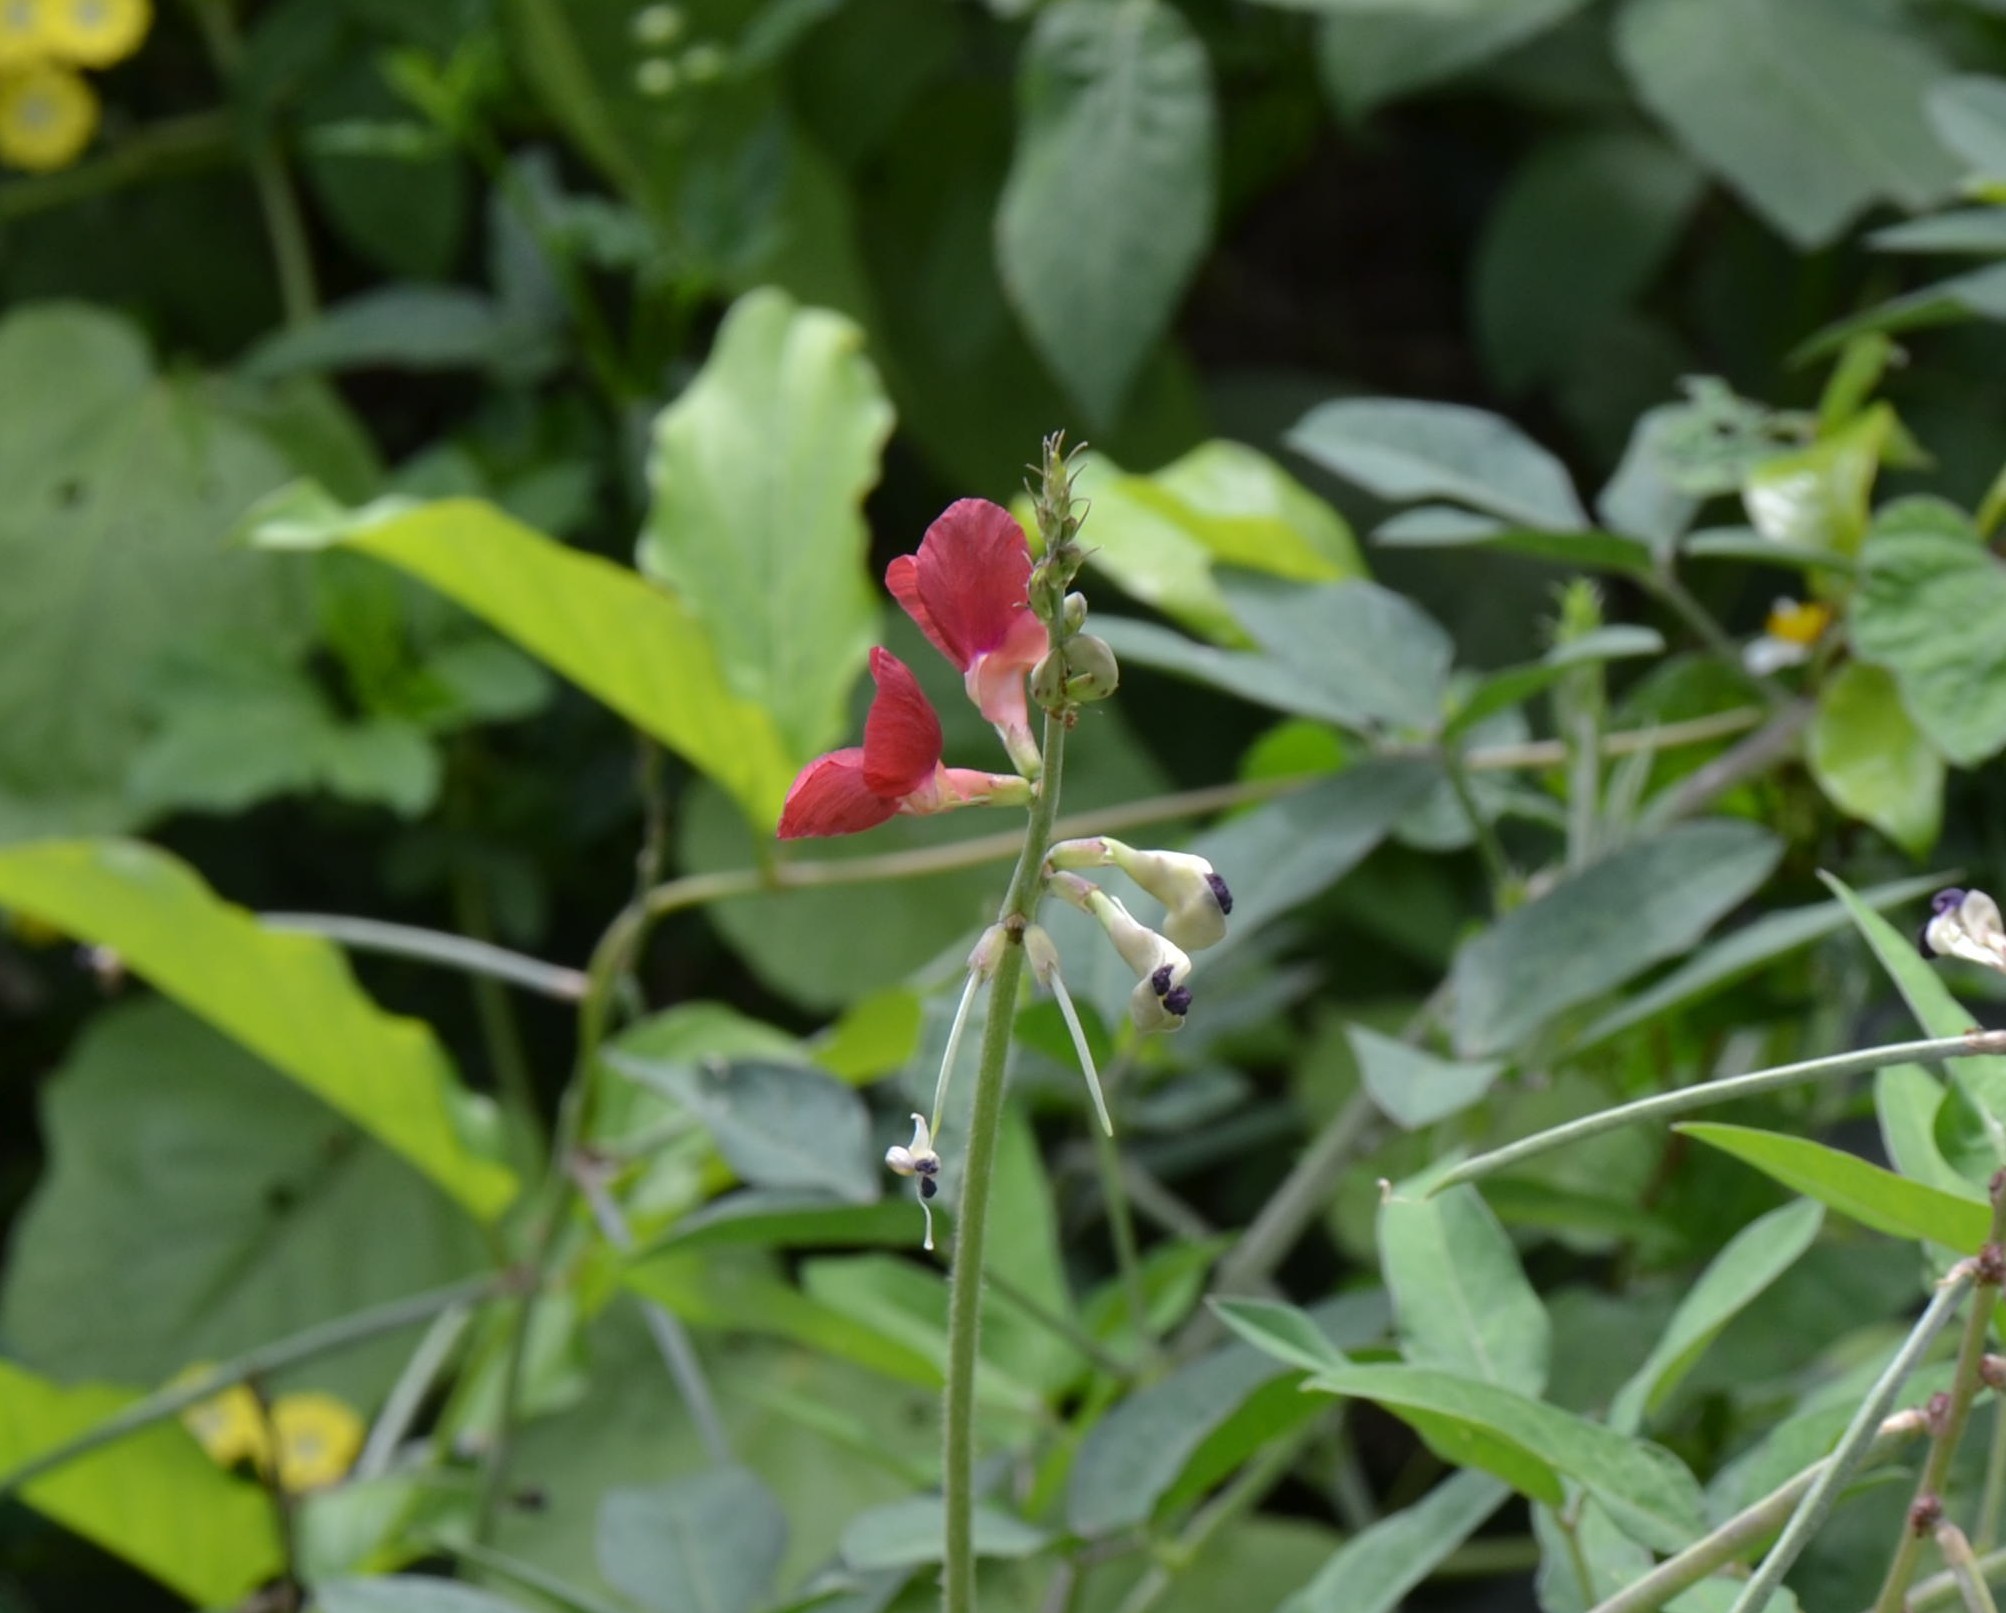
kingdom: Plantae
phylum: Tracheophyta
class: Magnoliopsida
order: Fabales
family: Fabaceae
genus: Macroptilium
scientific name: Macroptilium lathyroides
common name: Wild bushbean
